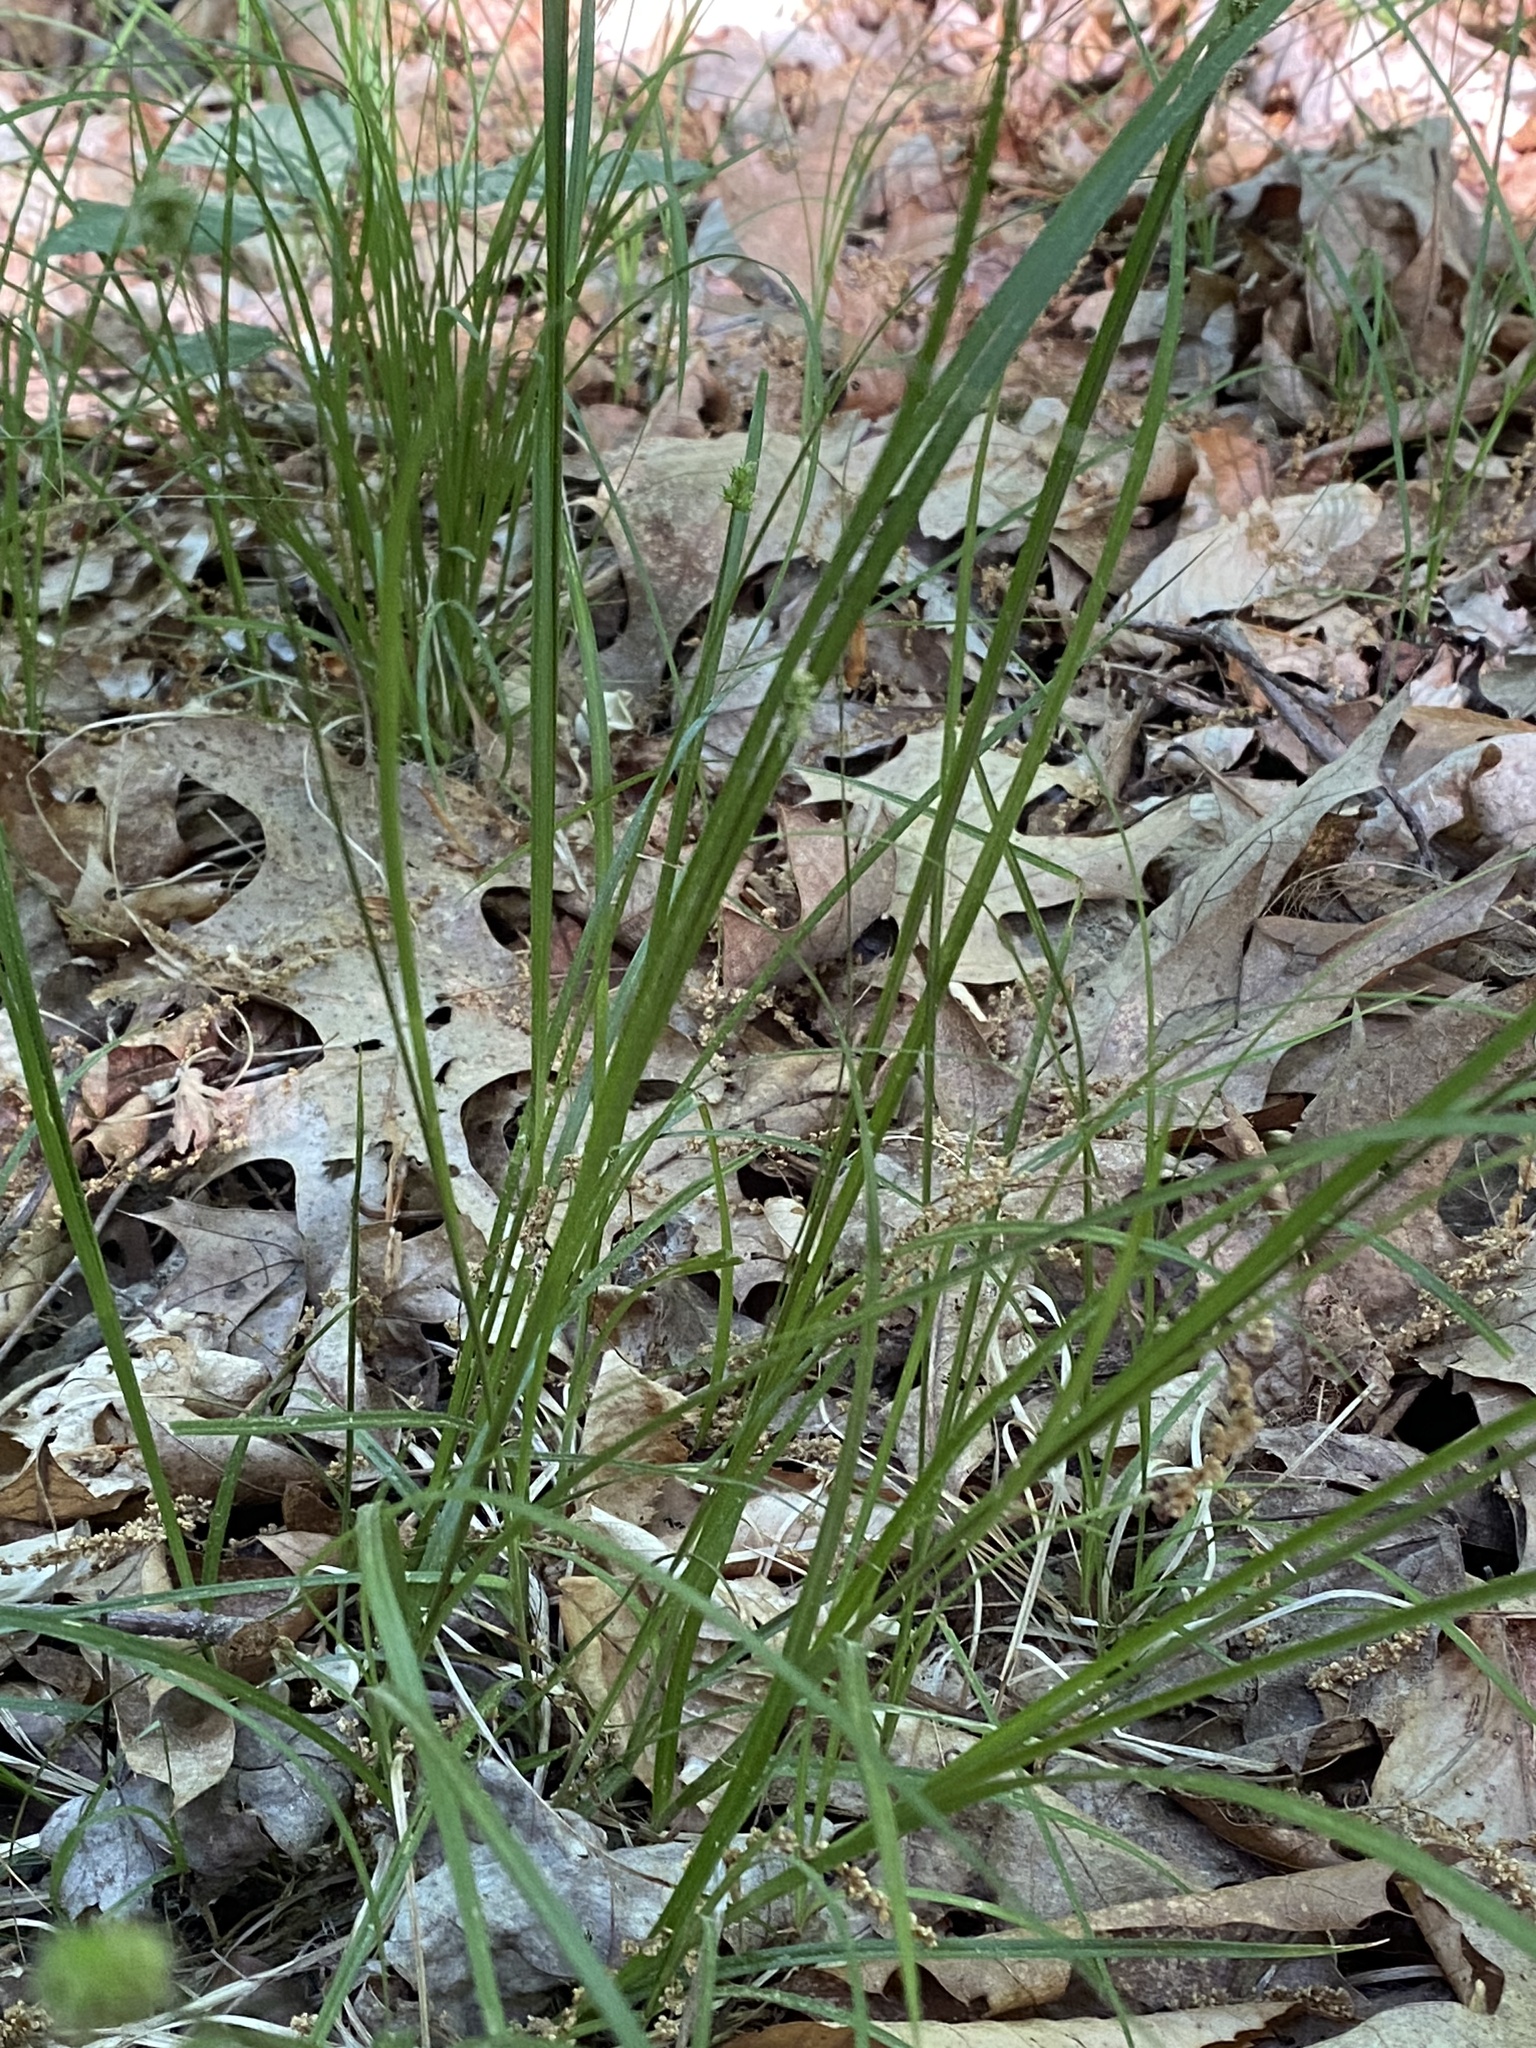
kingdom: Plantae
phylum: Tracheophyta
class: Liliopsida
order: Poales
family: Cyperaceae
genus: Carex
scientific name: Carex cephalophora
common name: Oval-headed sedge
